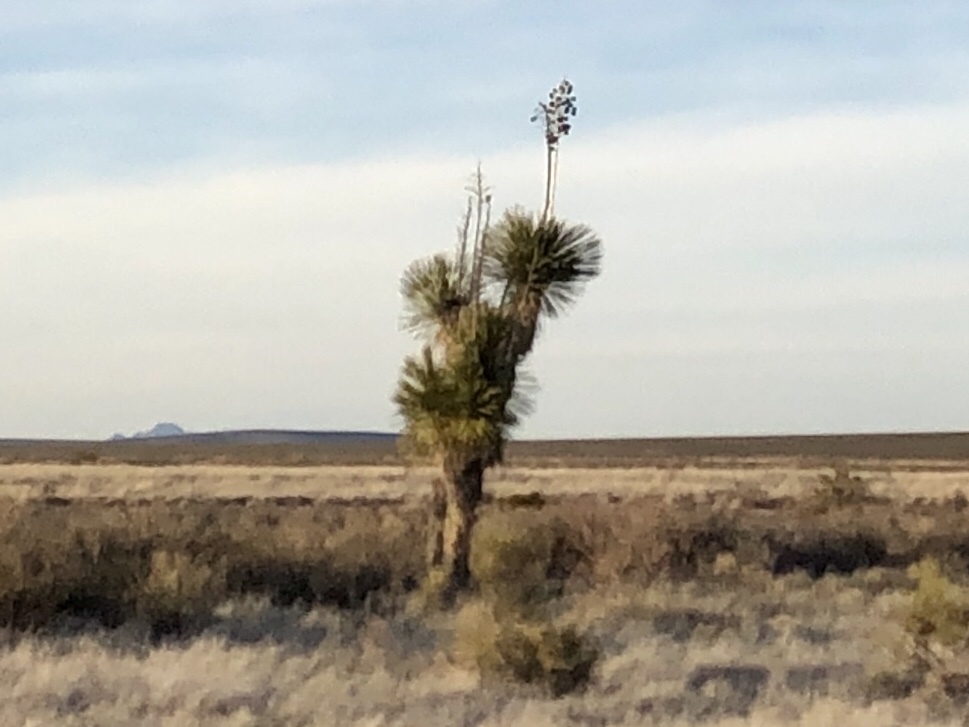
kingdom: Plantae
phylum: Tracheophyta
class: Liliopsida
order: Asparagales
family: Asparagaceae
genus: Yucca
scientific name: Yucca elata
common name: Palmella
